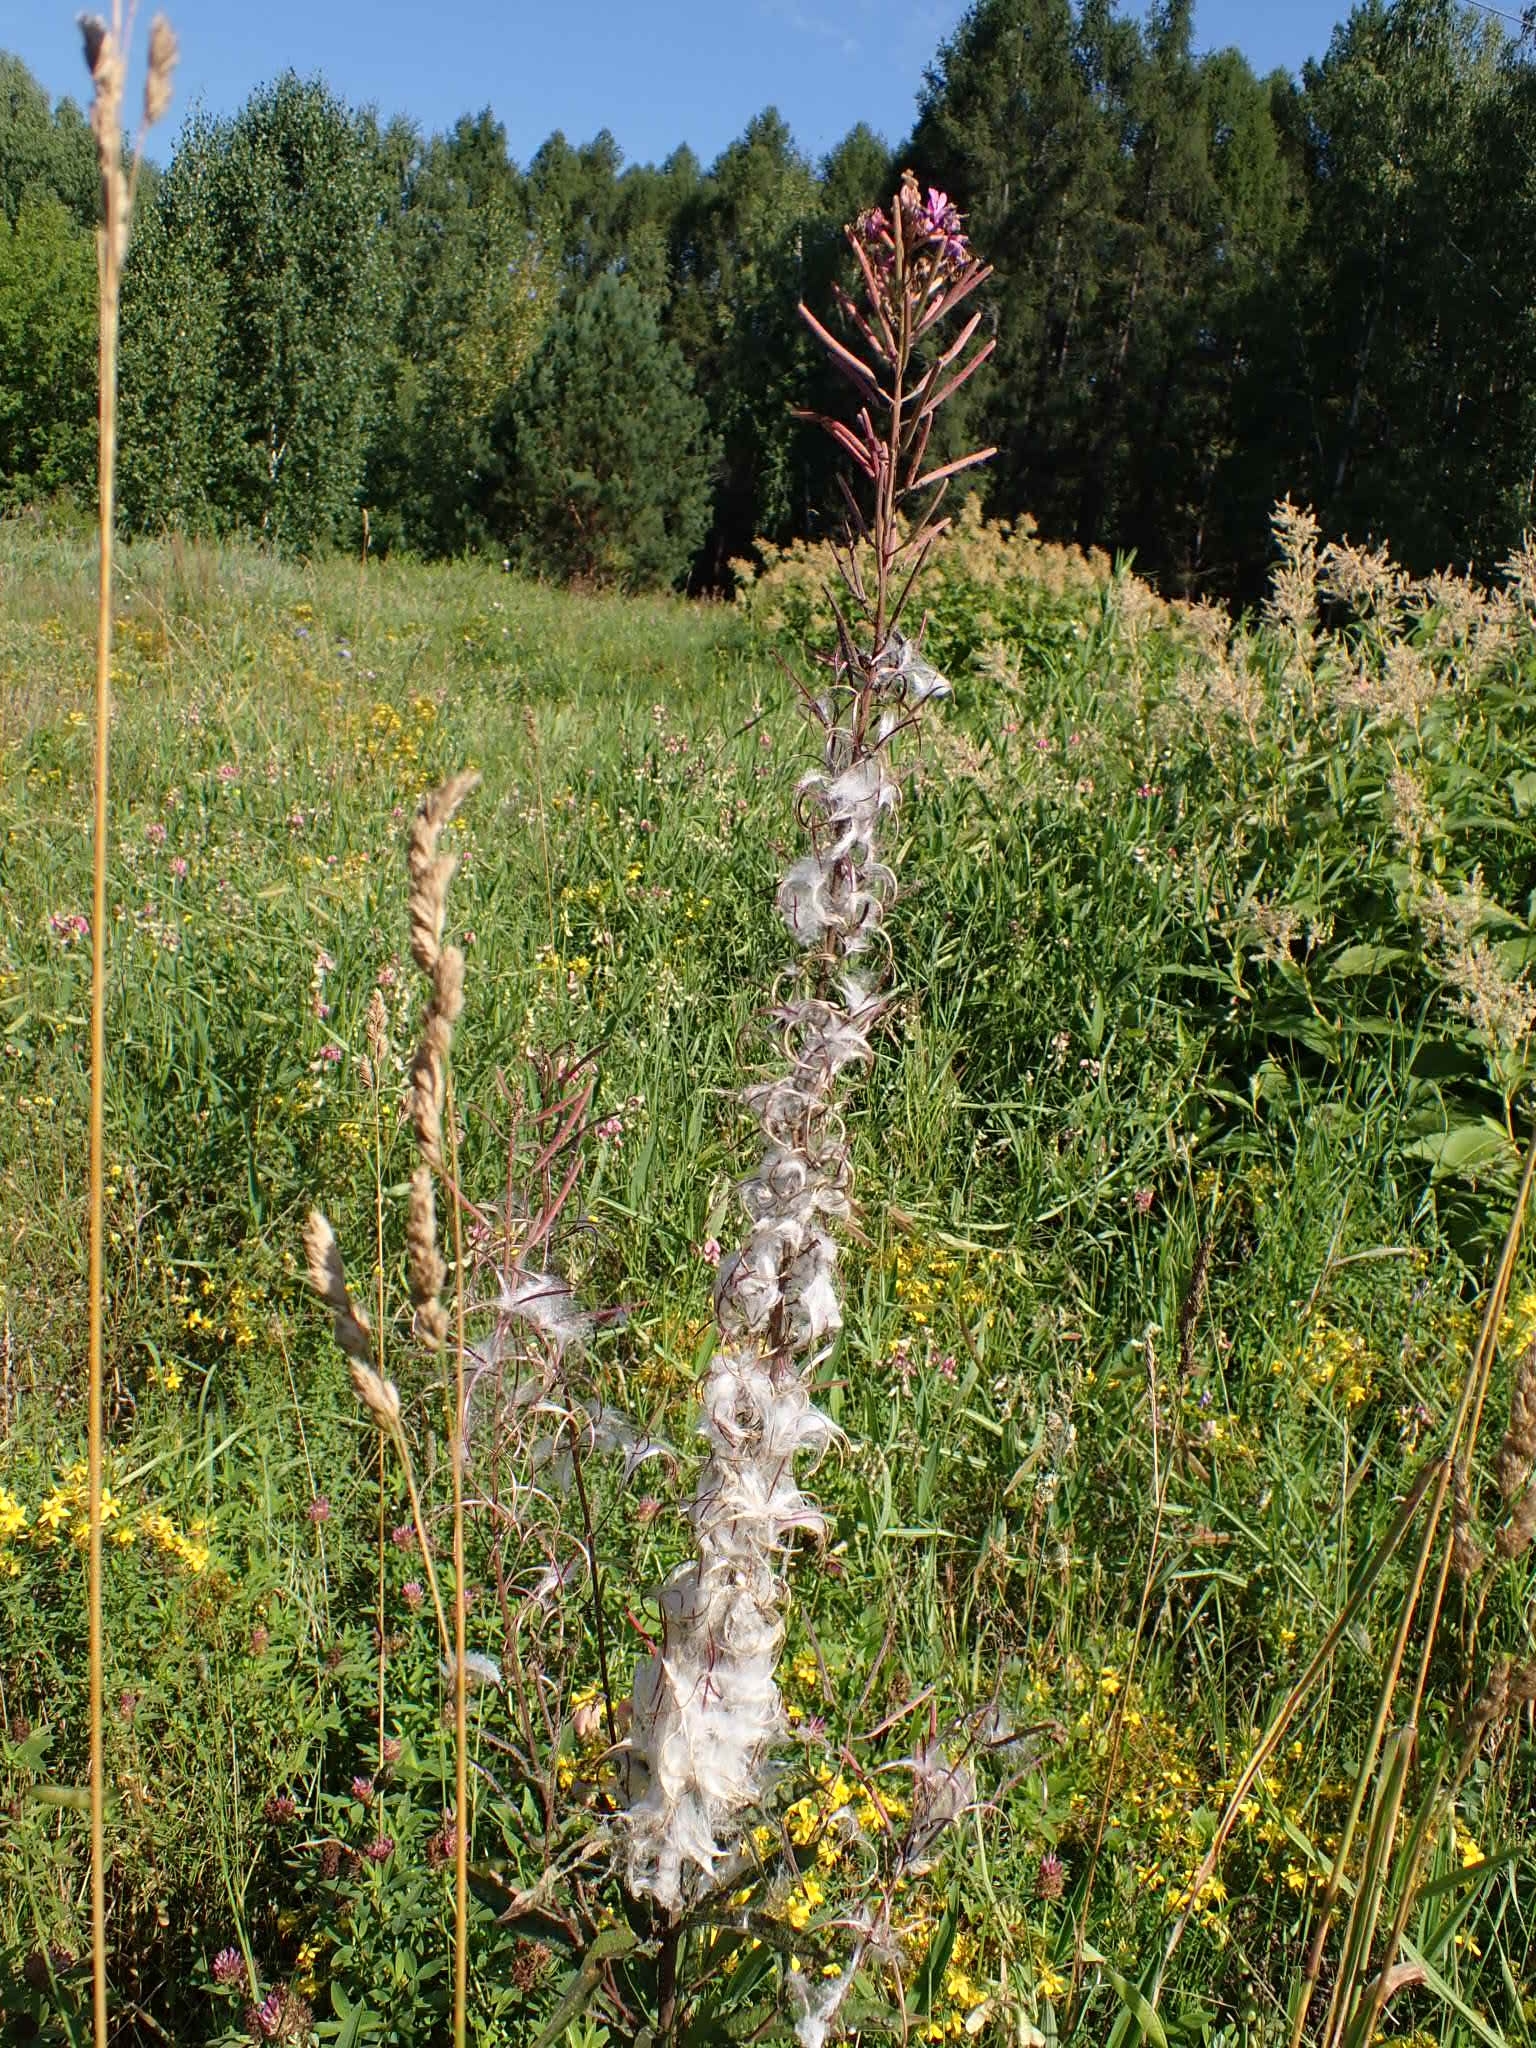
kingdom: Plantae
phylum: Tracheophyta
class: Magnoliopsida
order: Myrtales
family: Onagraceae
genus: Chamaenerion
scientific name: Chamaenerion angustifolium
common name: Fireweed
